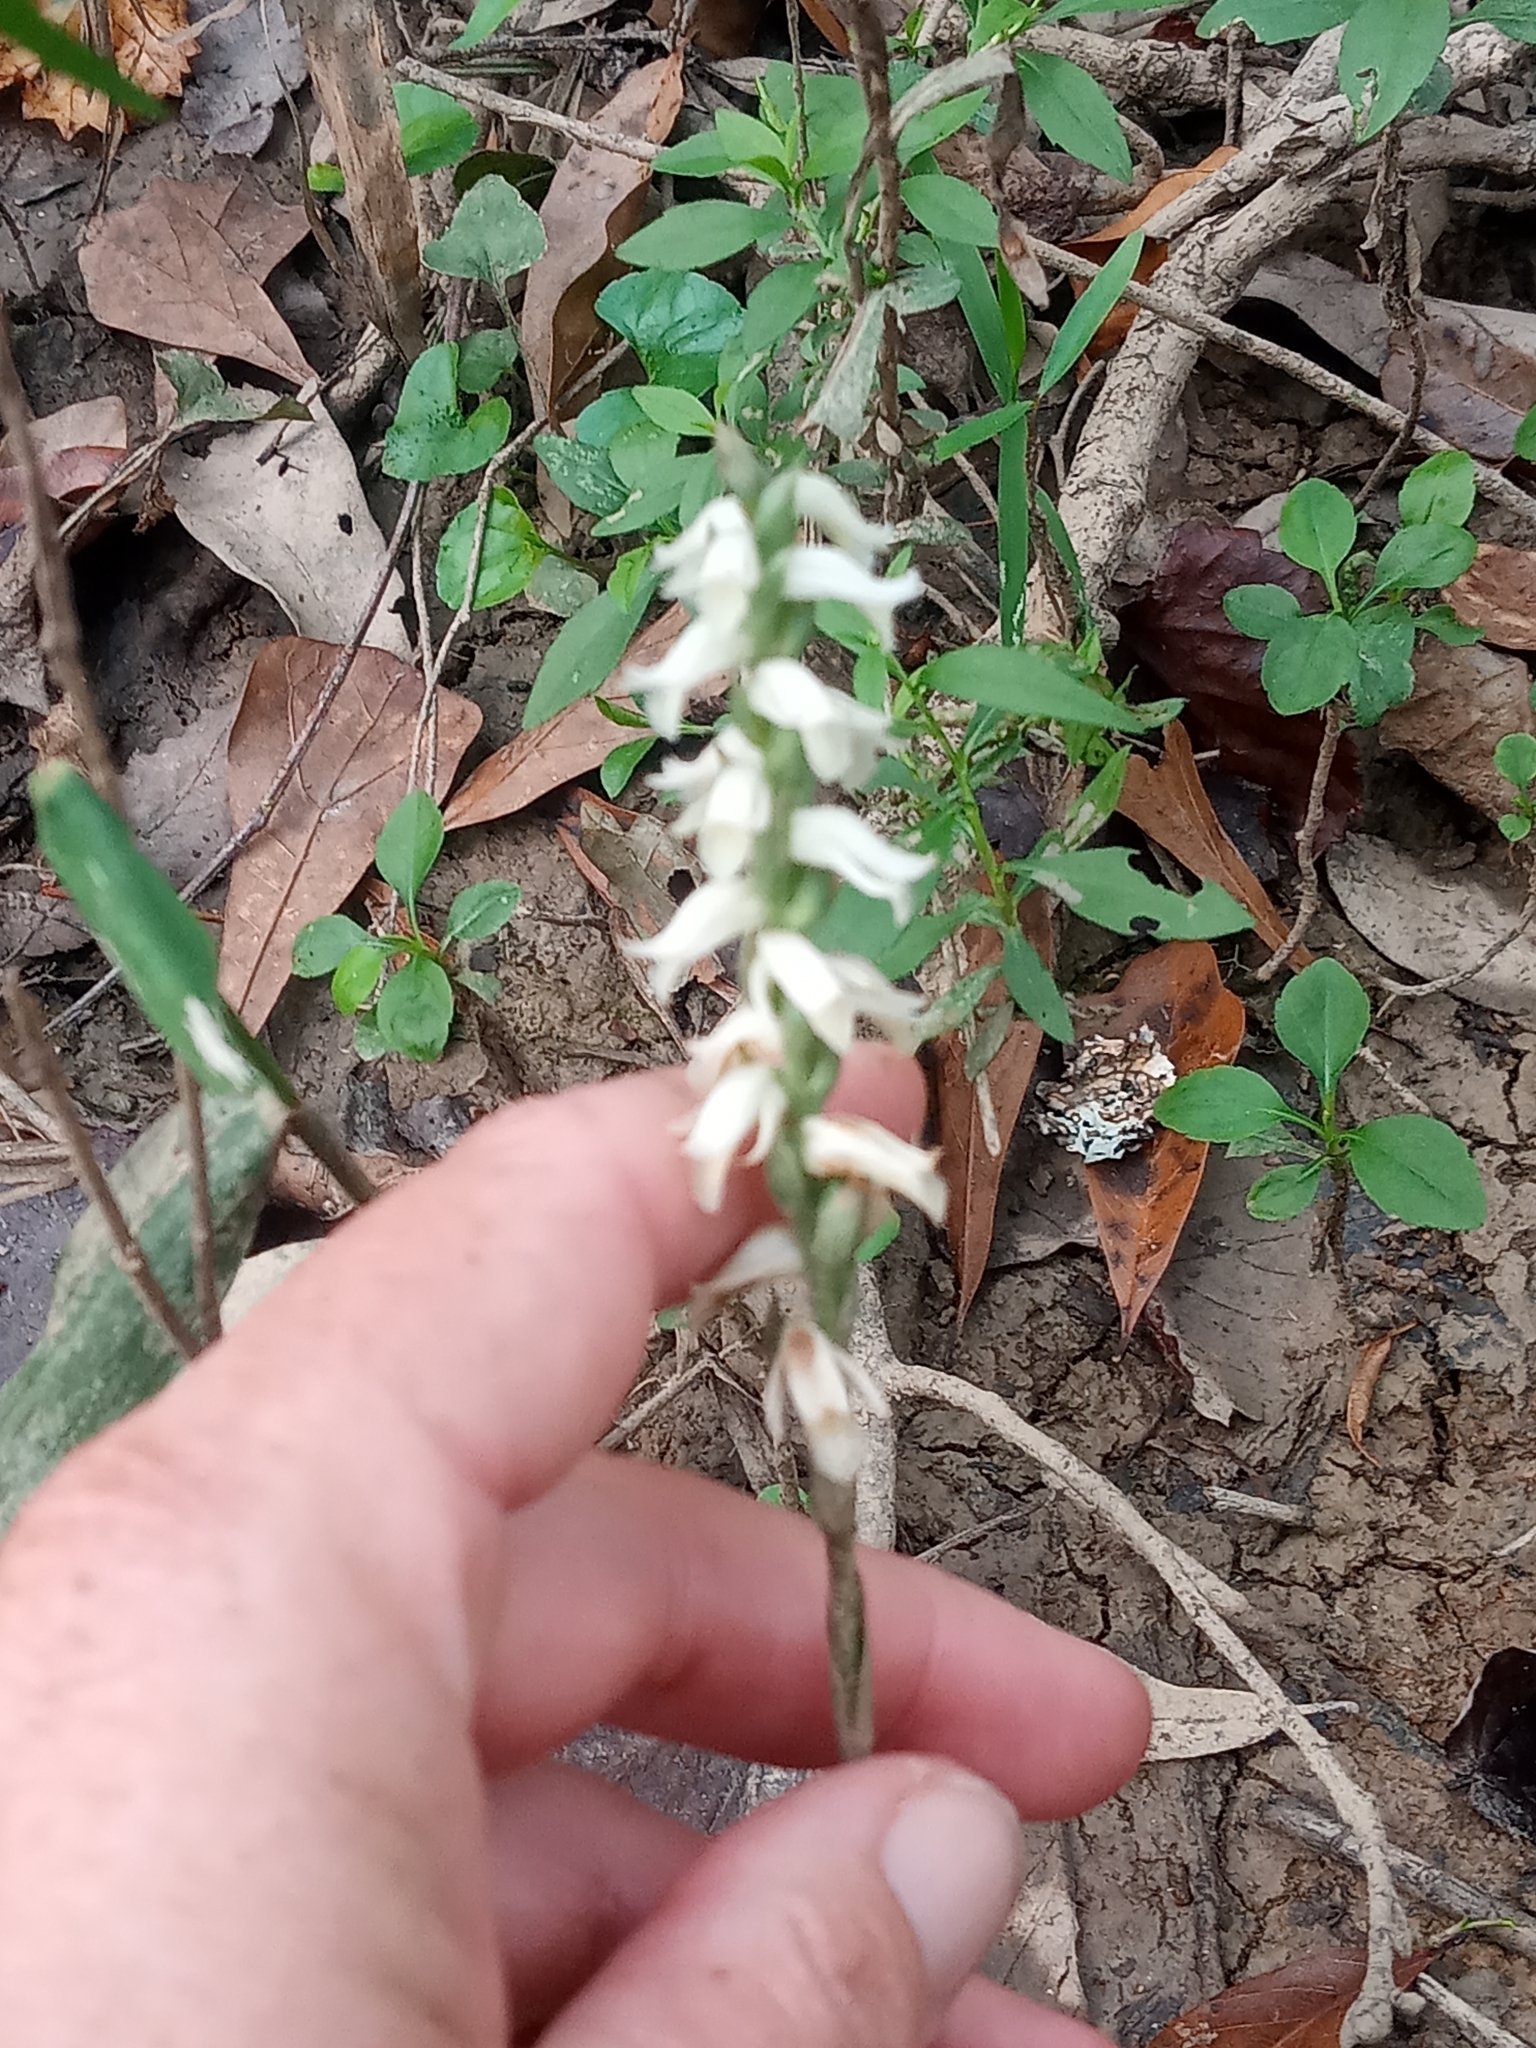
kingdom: Plantae
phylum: Tracheophyta
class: Liliopsida
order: Asparagales
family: Orchidaceae
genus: Spiranthes
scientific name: Spiranthes odorata
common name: Marsh ladies'-tresses
